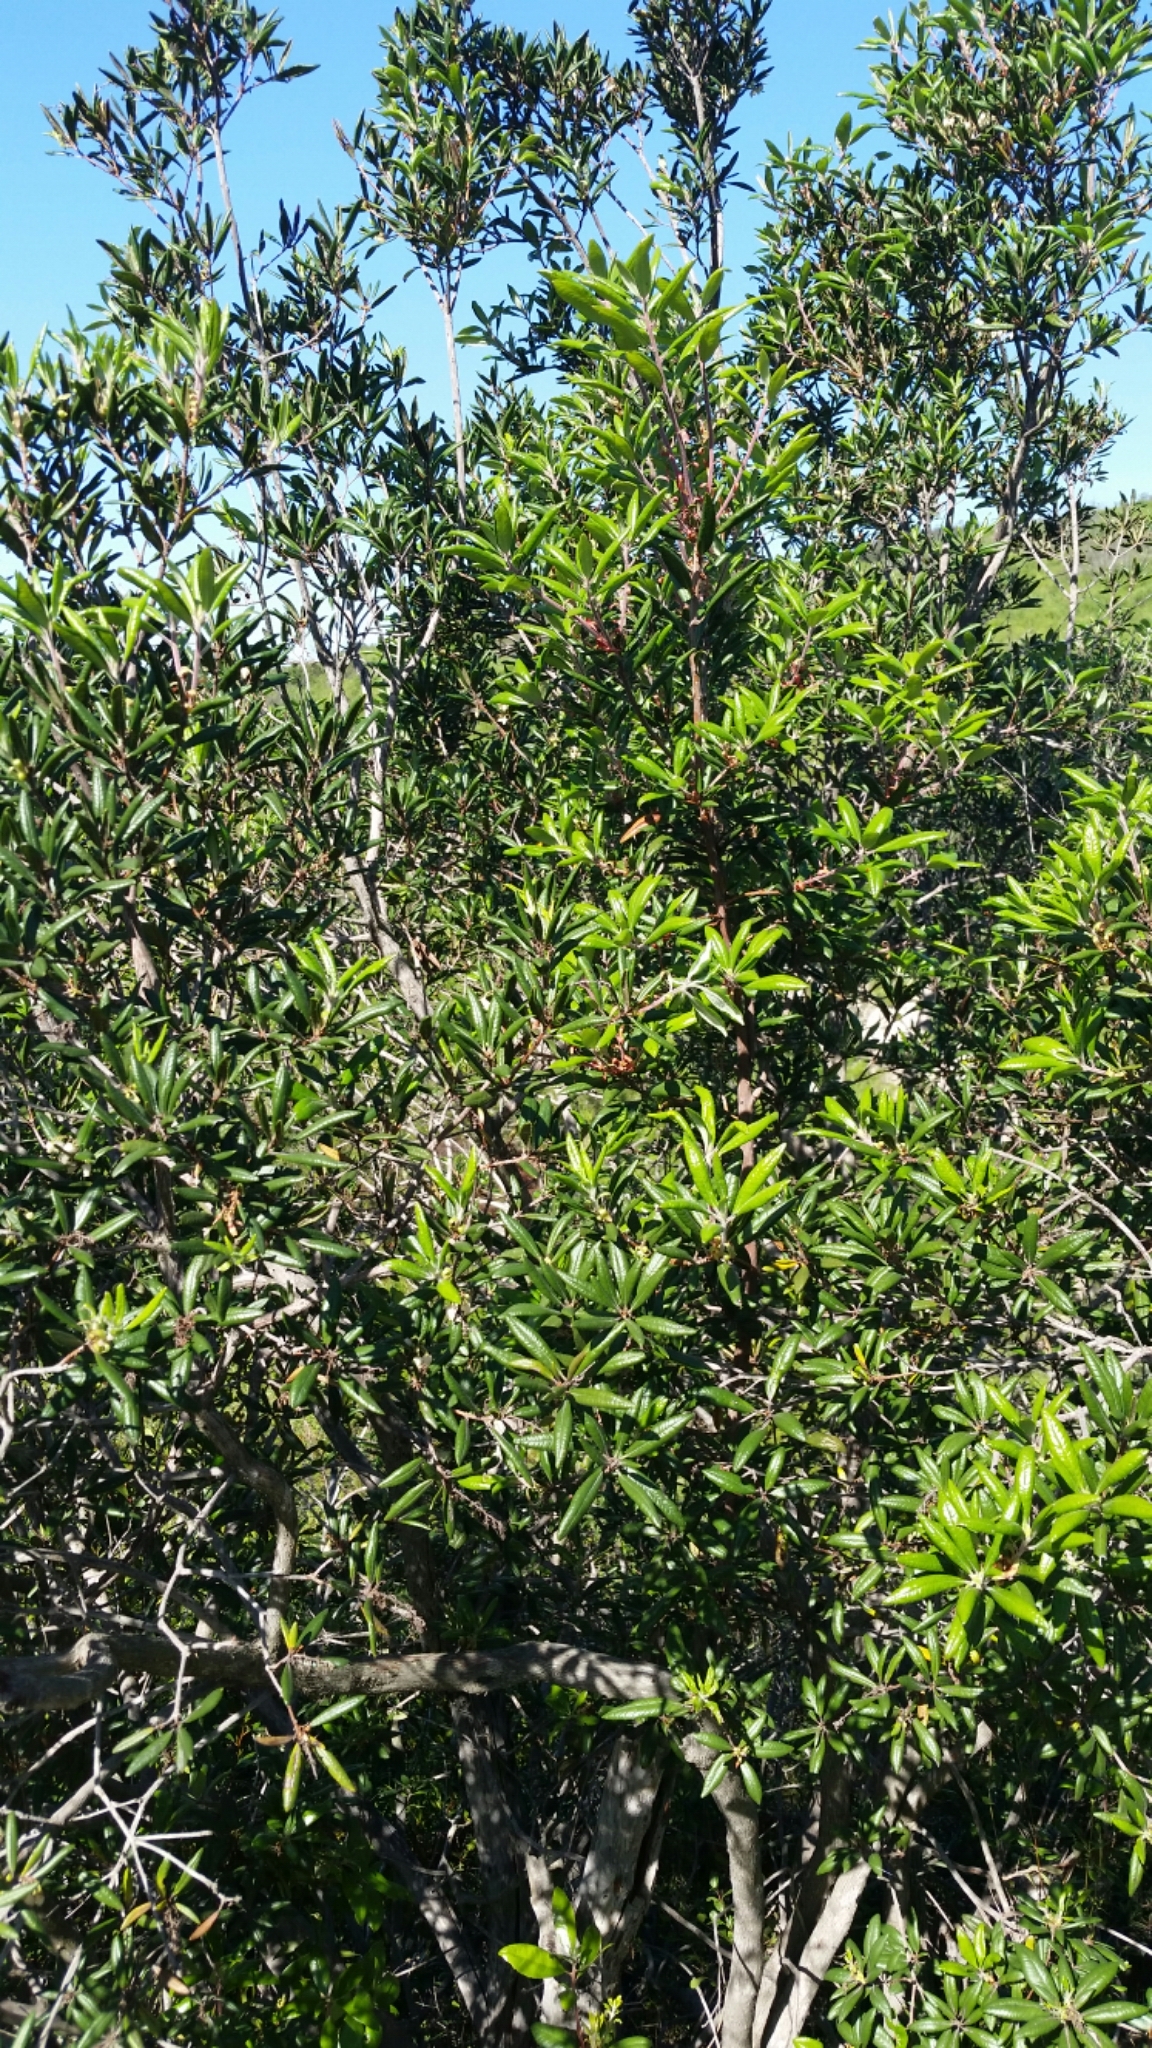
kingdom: Plantae
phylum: Tracheophyta
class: Magnoliopsida
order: Ericales
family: Ericaceae
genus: Comarostaphylis
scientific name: Comarostaphylis diversifolia
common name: Summer-holly
